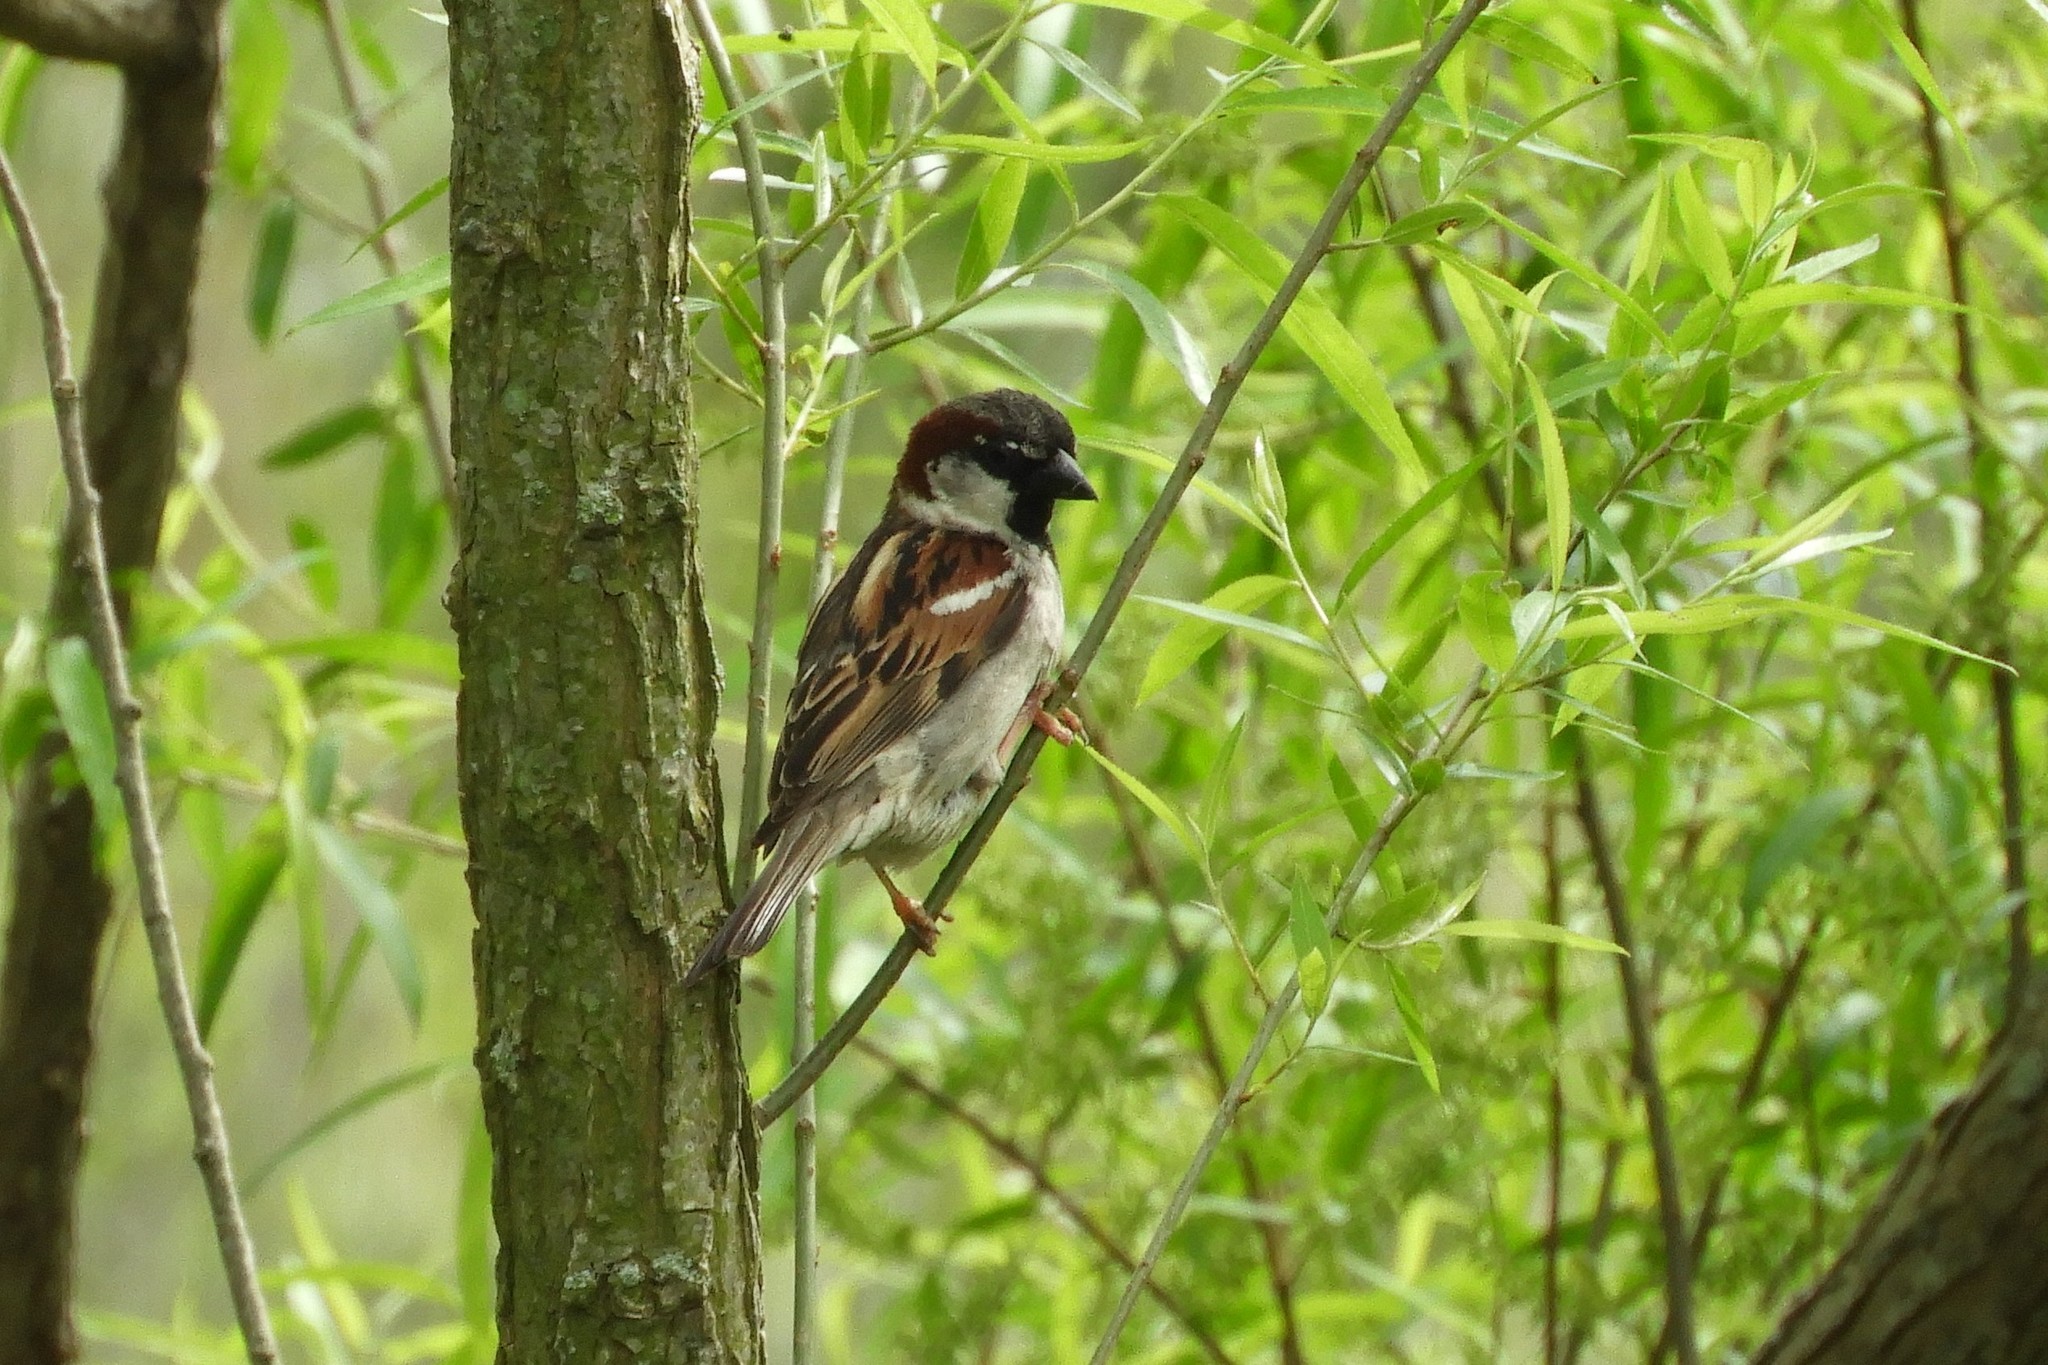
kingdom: Animalia
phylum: Chordata
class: Aves
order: Passeriformes
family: Passeridae
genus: Passer
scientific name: Passer domesticus
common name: House sparrow
